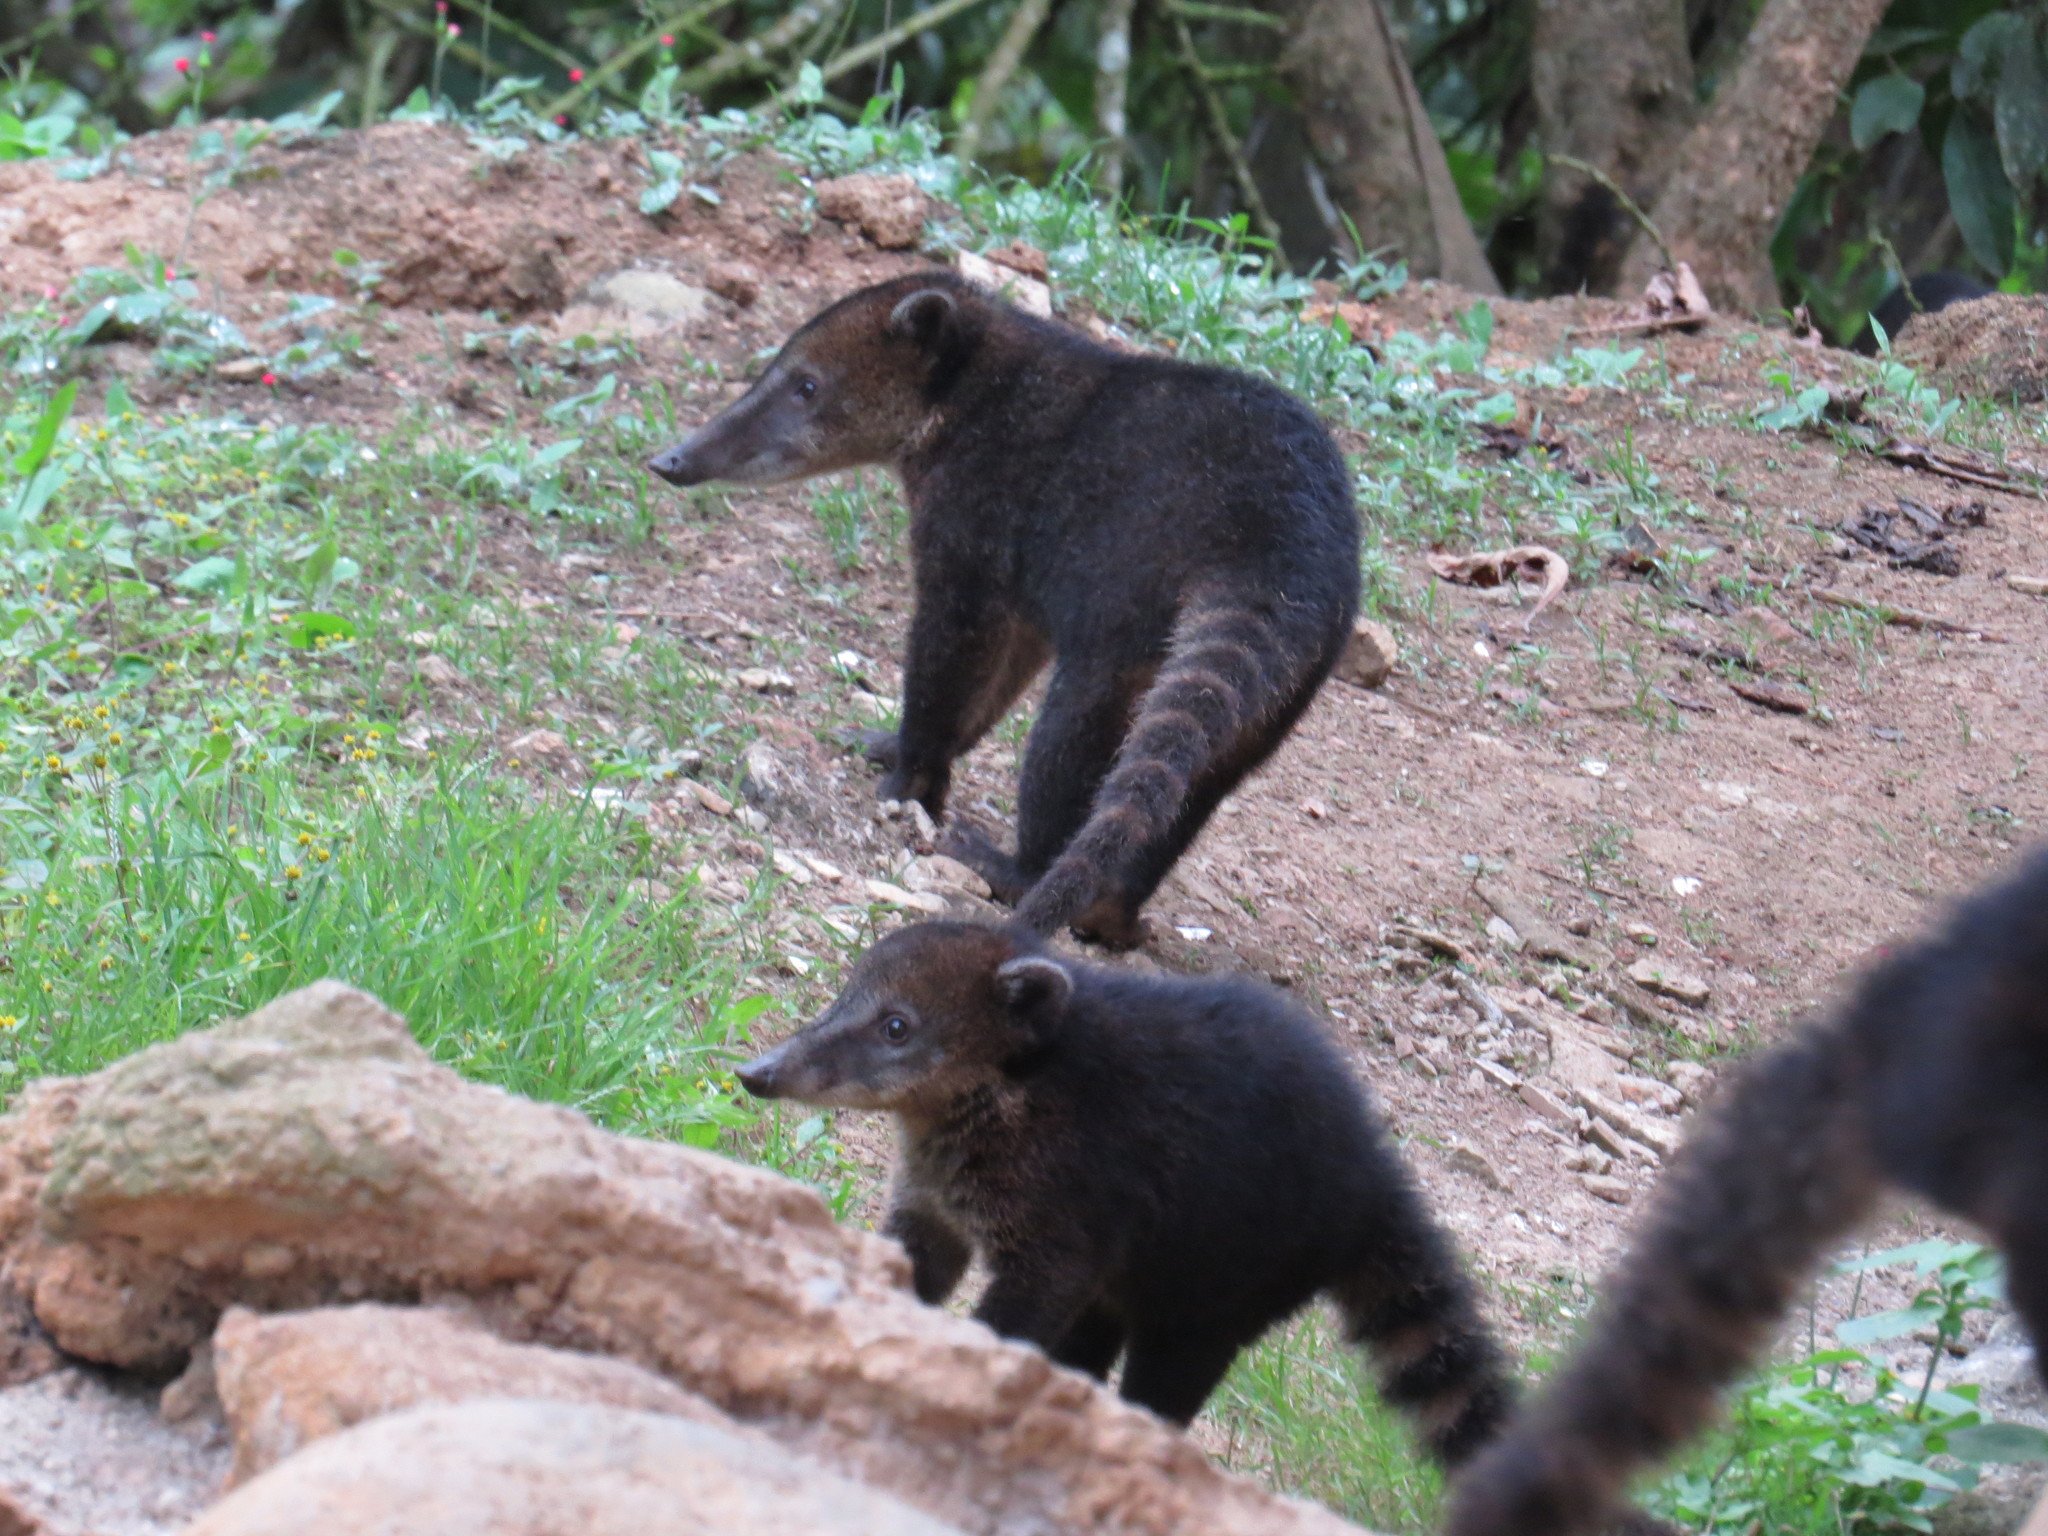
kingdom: Animalia
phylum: Chordata
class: Mammalia
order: Carnivora
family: Procyonidae
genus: Nasua
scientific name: Nasua nasua
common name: South american coati
